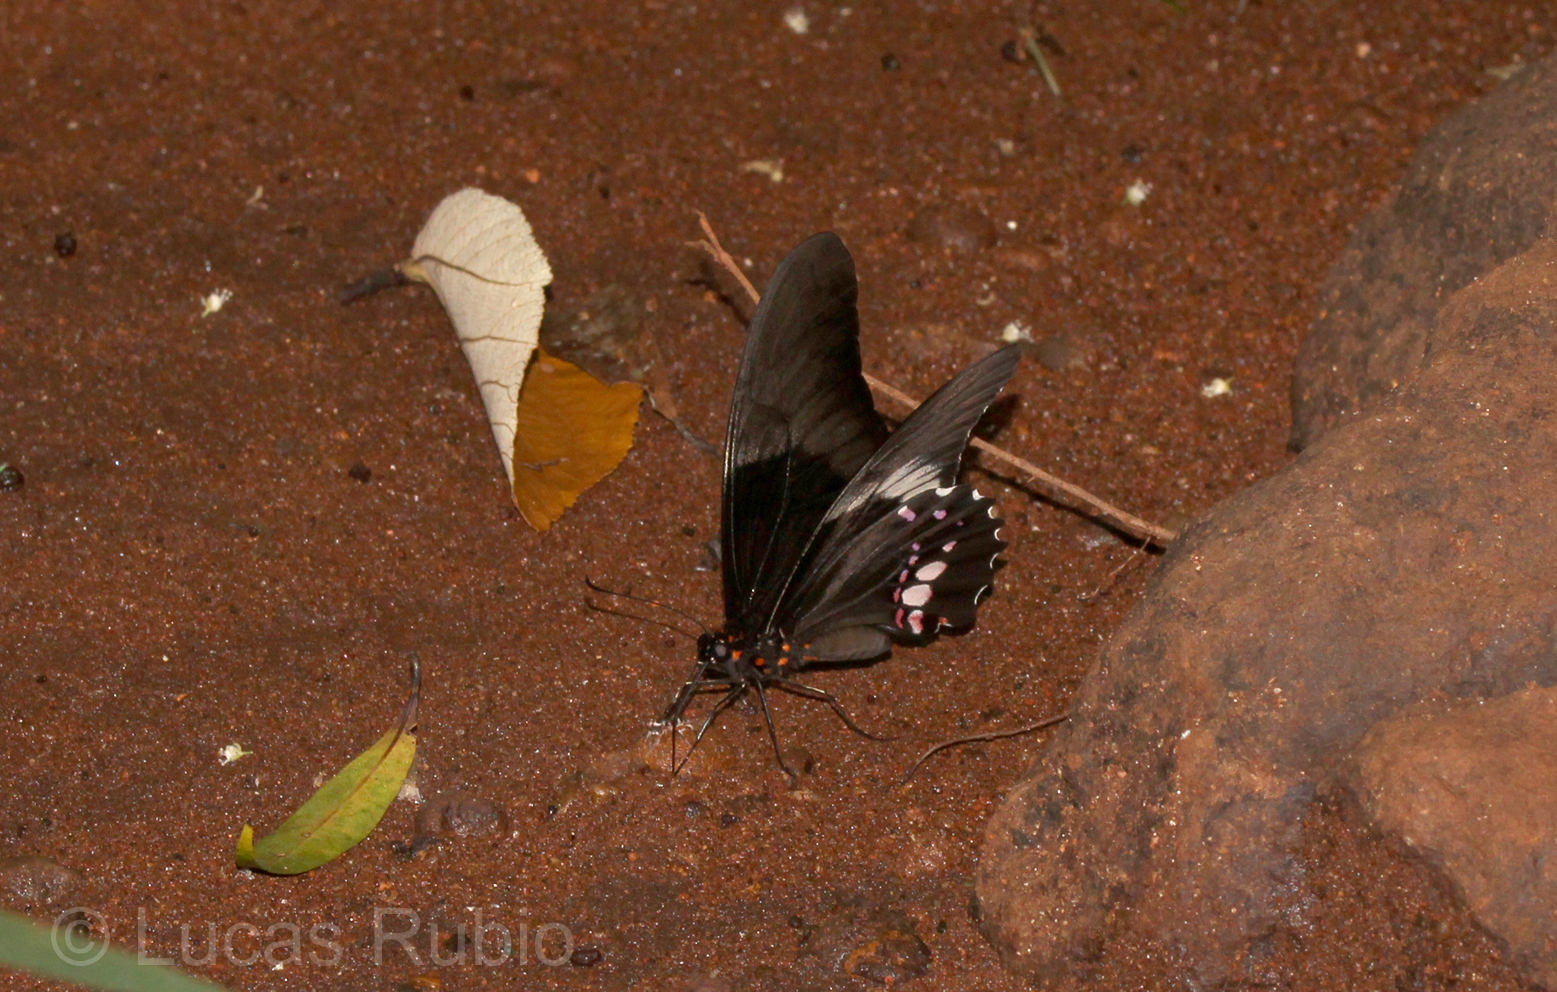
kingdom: Animalia
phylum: Arthropoda
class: Insecta
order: Lepidoptera
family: Papilionidae
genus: Papilio
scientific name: Papilio anchisiades
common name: Idaes swallowtail
